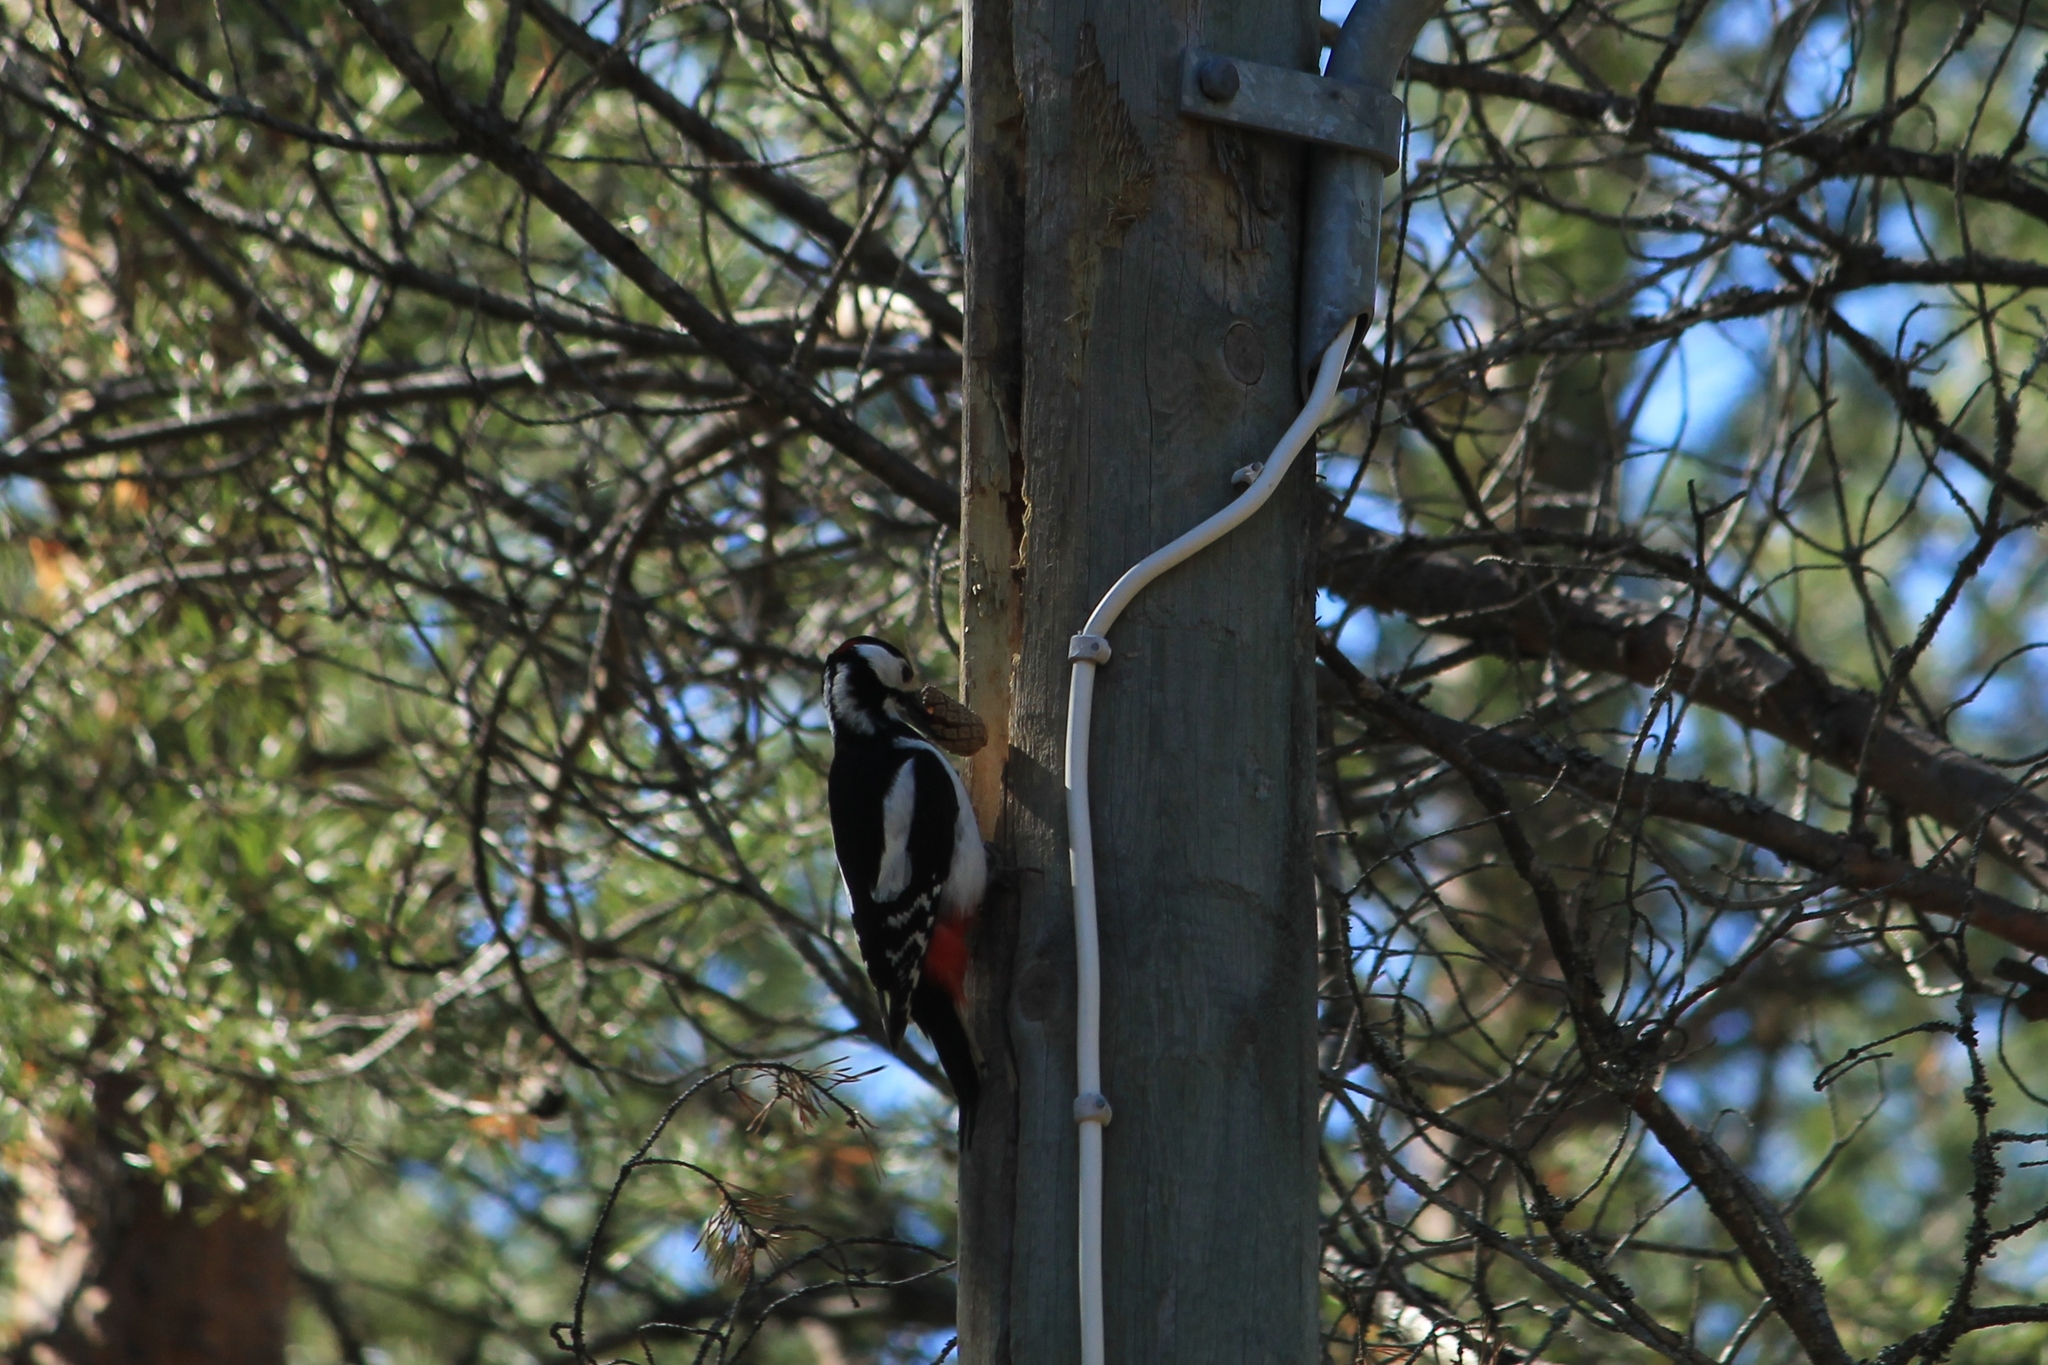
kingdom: Animalia
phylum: Chordata
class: Aves
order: Piciformes
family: Picidae
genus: Dendrocopos
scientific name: Dendrocopos major
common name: Great spotted woodpecker
